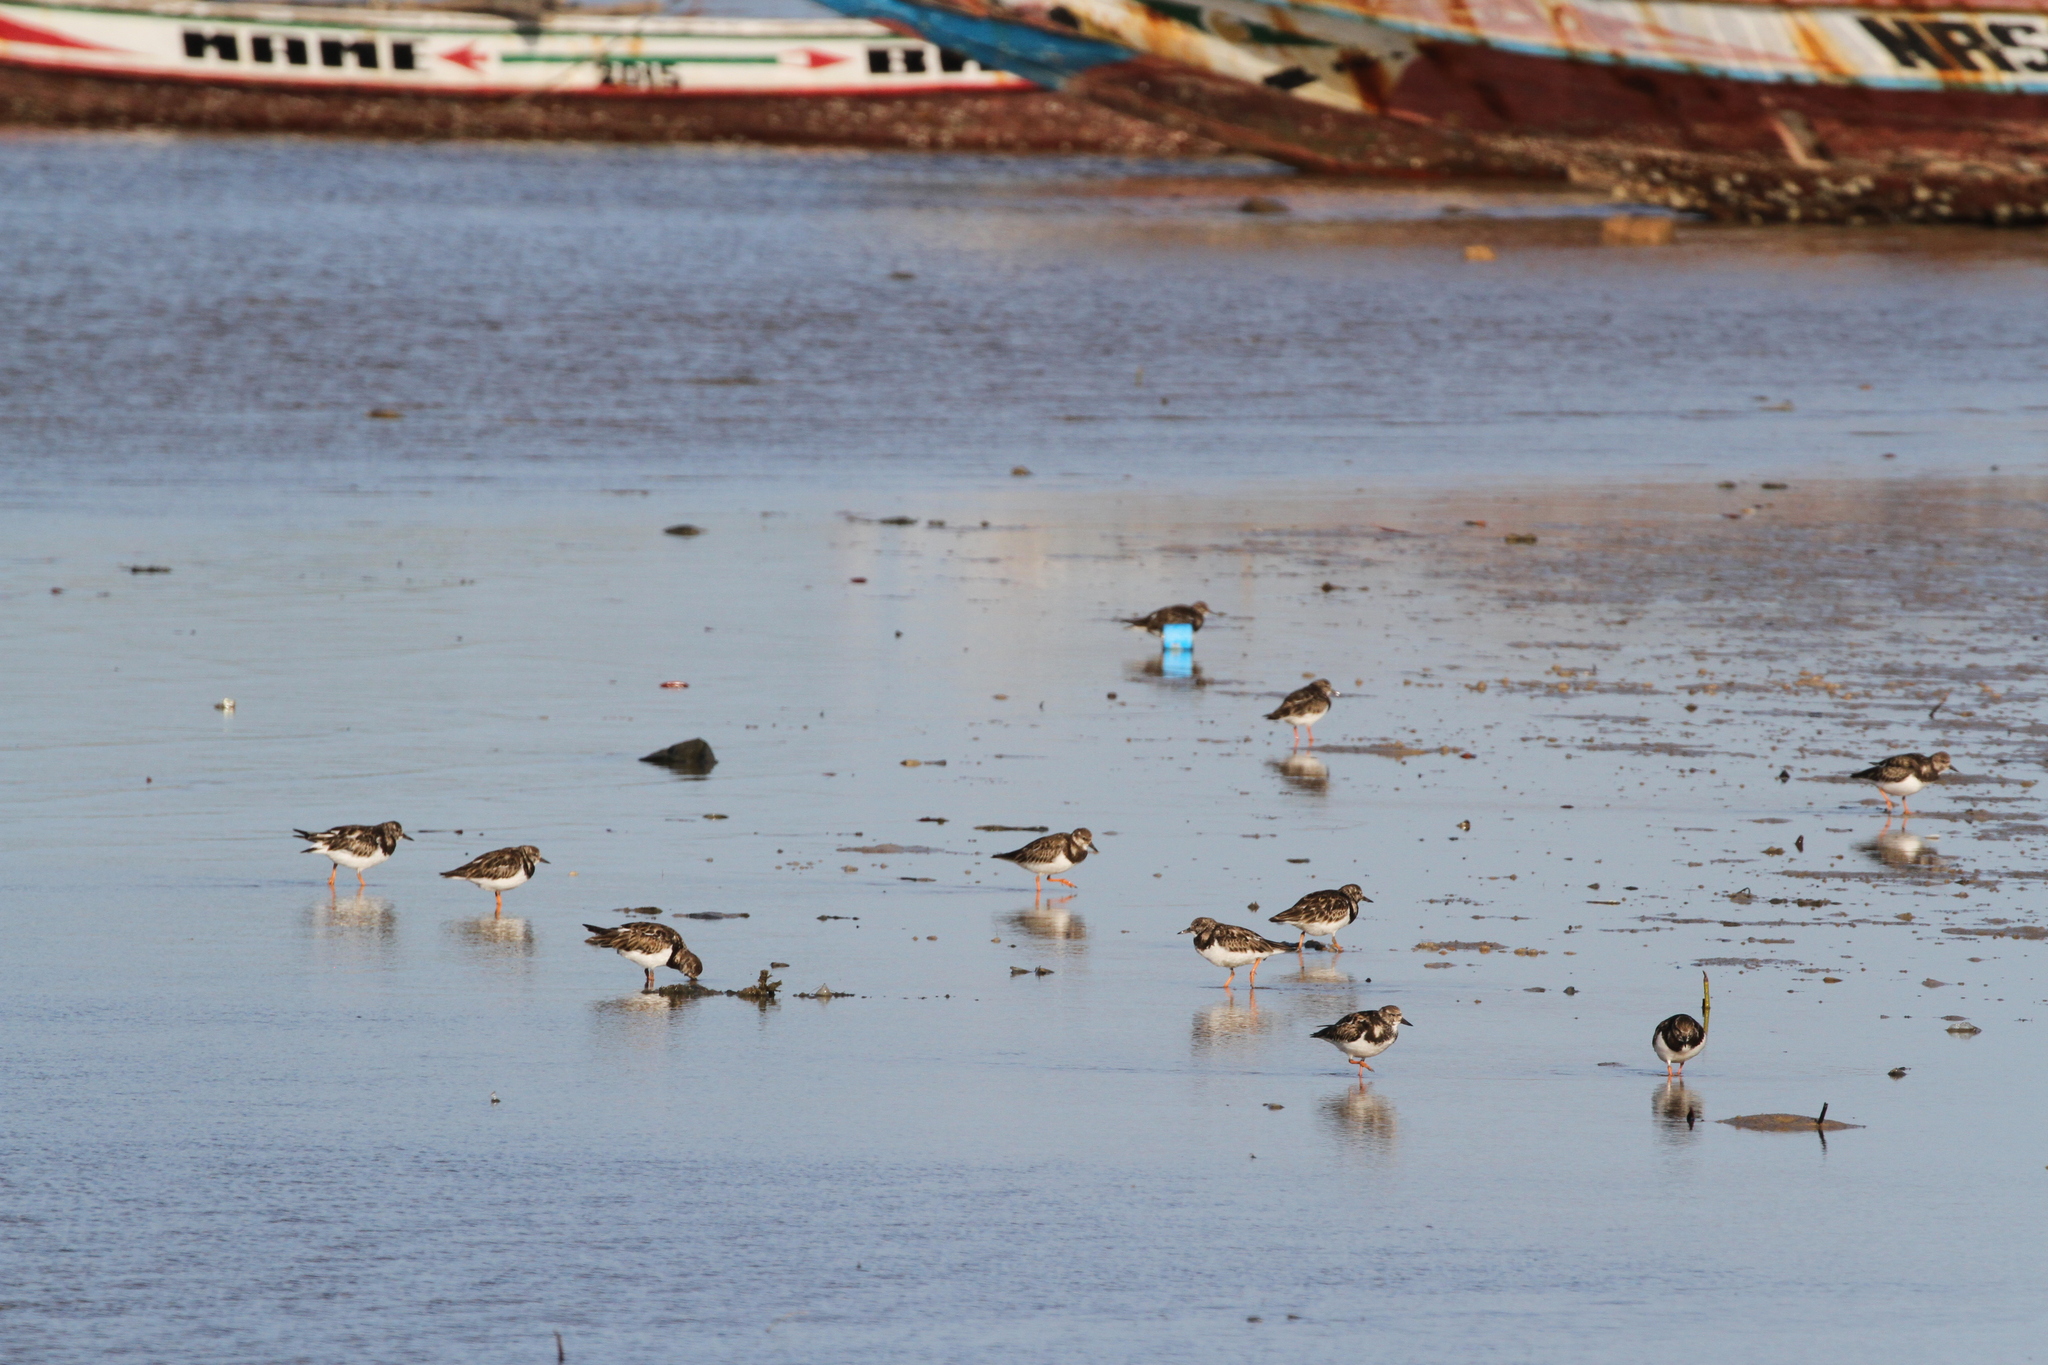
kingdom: Animalia
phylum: Chordata
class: Aves
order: Charadriiformes
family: Scolopacidae
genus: Arenaria
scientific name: Arenaria interpres
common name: Ruddy turnstone
